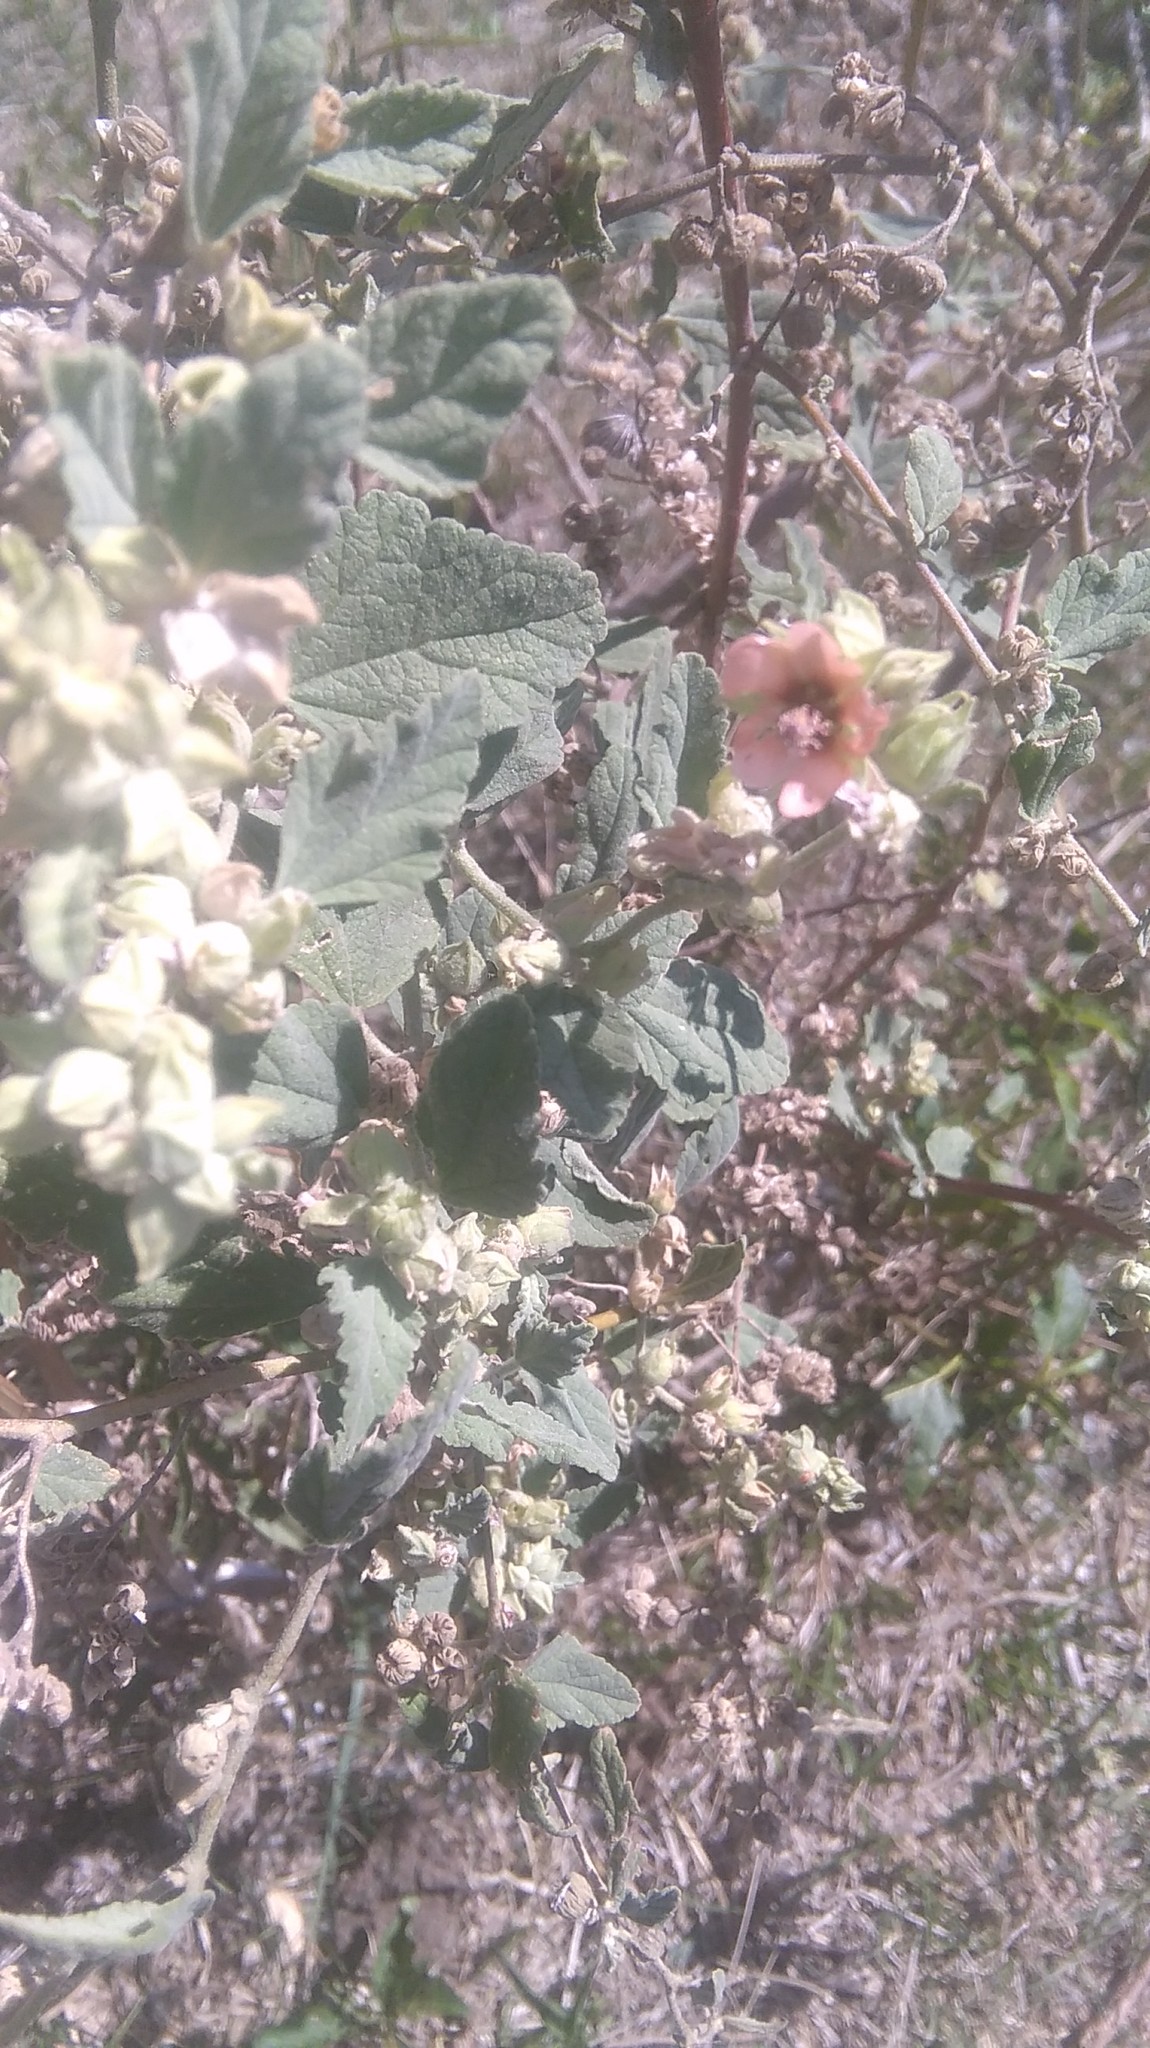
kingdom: Plantae
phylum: Tracheophyta
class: Magnoliopsida
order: Malvales
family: Malvaceae
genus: Sphaeralcea
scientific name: Sphaeralcea bonariensis
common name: Latin globemallow
